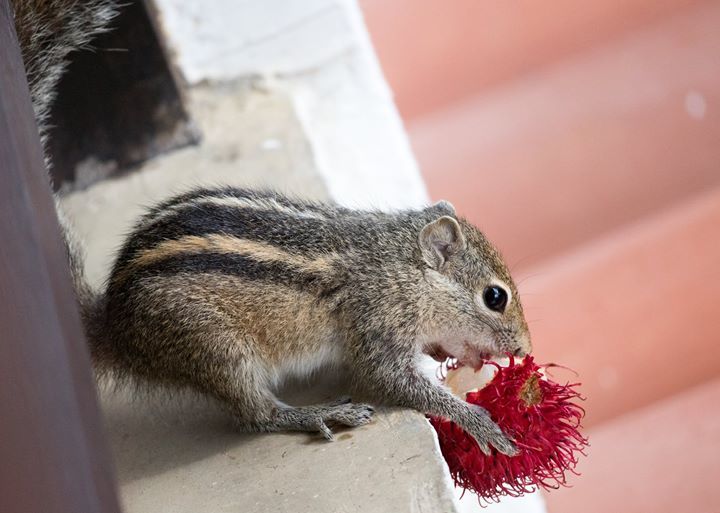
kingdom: Animalia
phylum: Chordata
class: Mammalia
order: Rodentia
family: Sciuridae
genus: Funambulus
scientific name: Funambulus palmarum
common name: Indian palm squirrel
